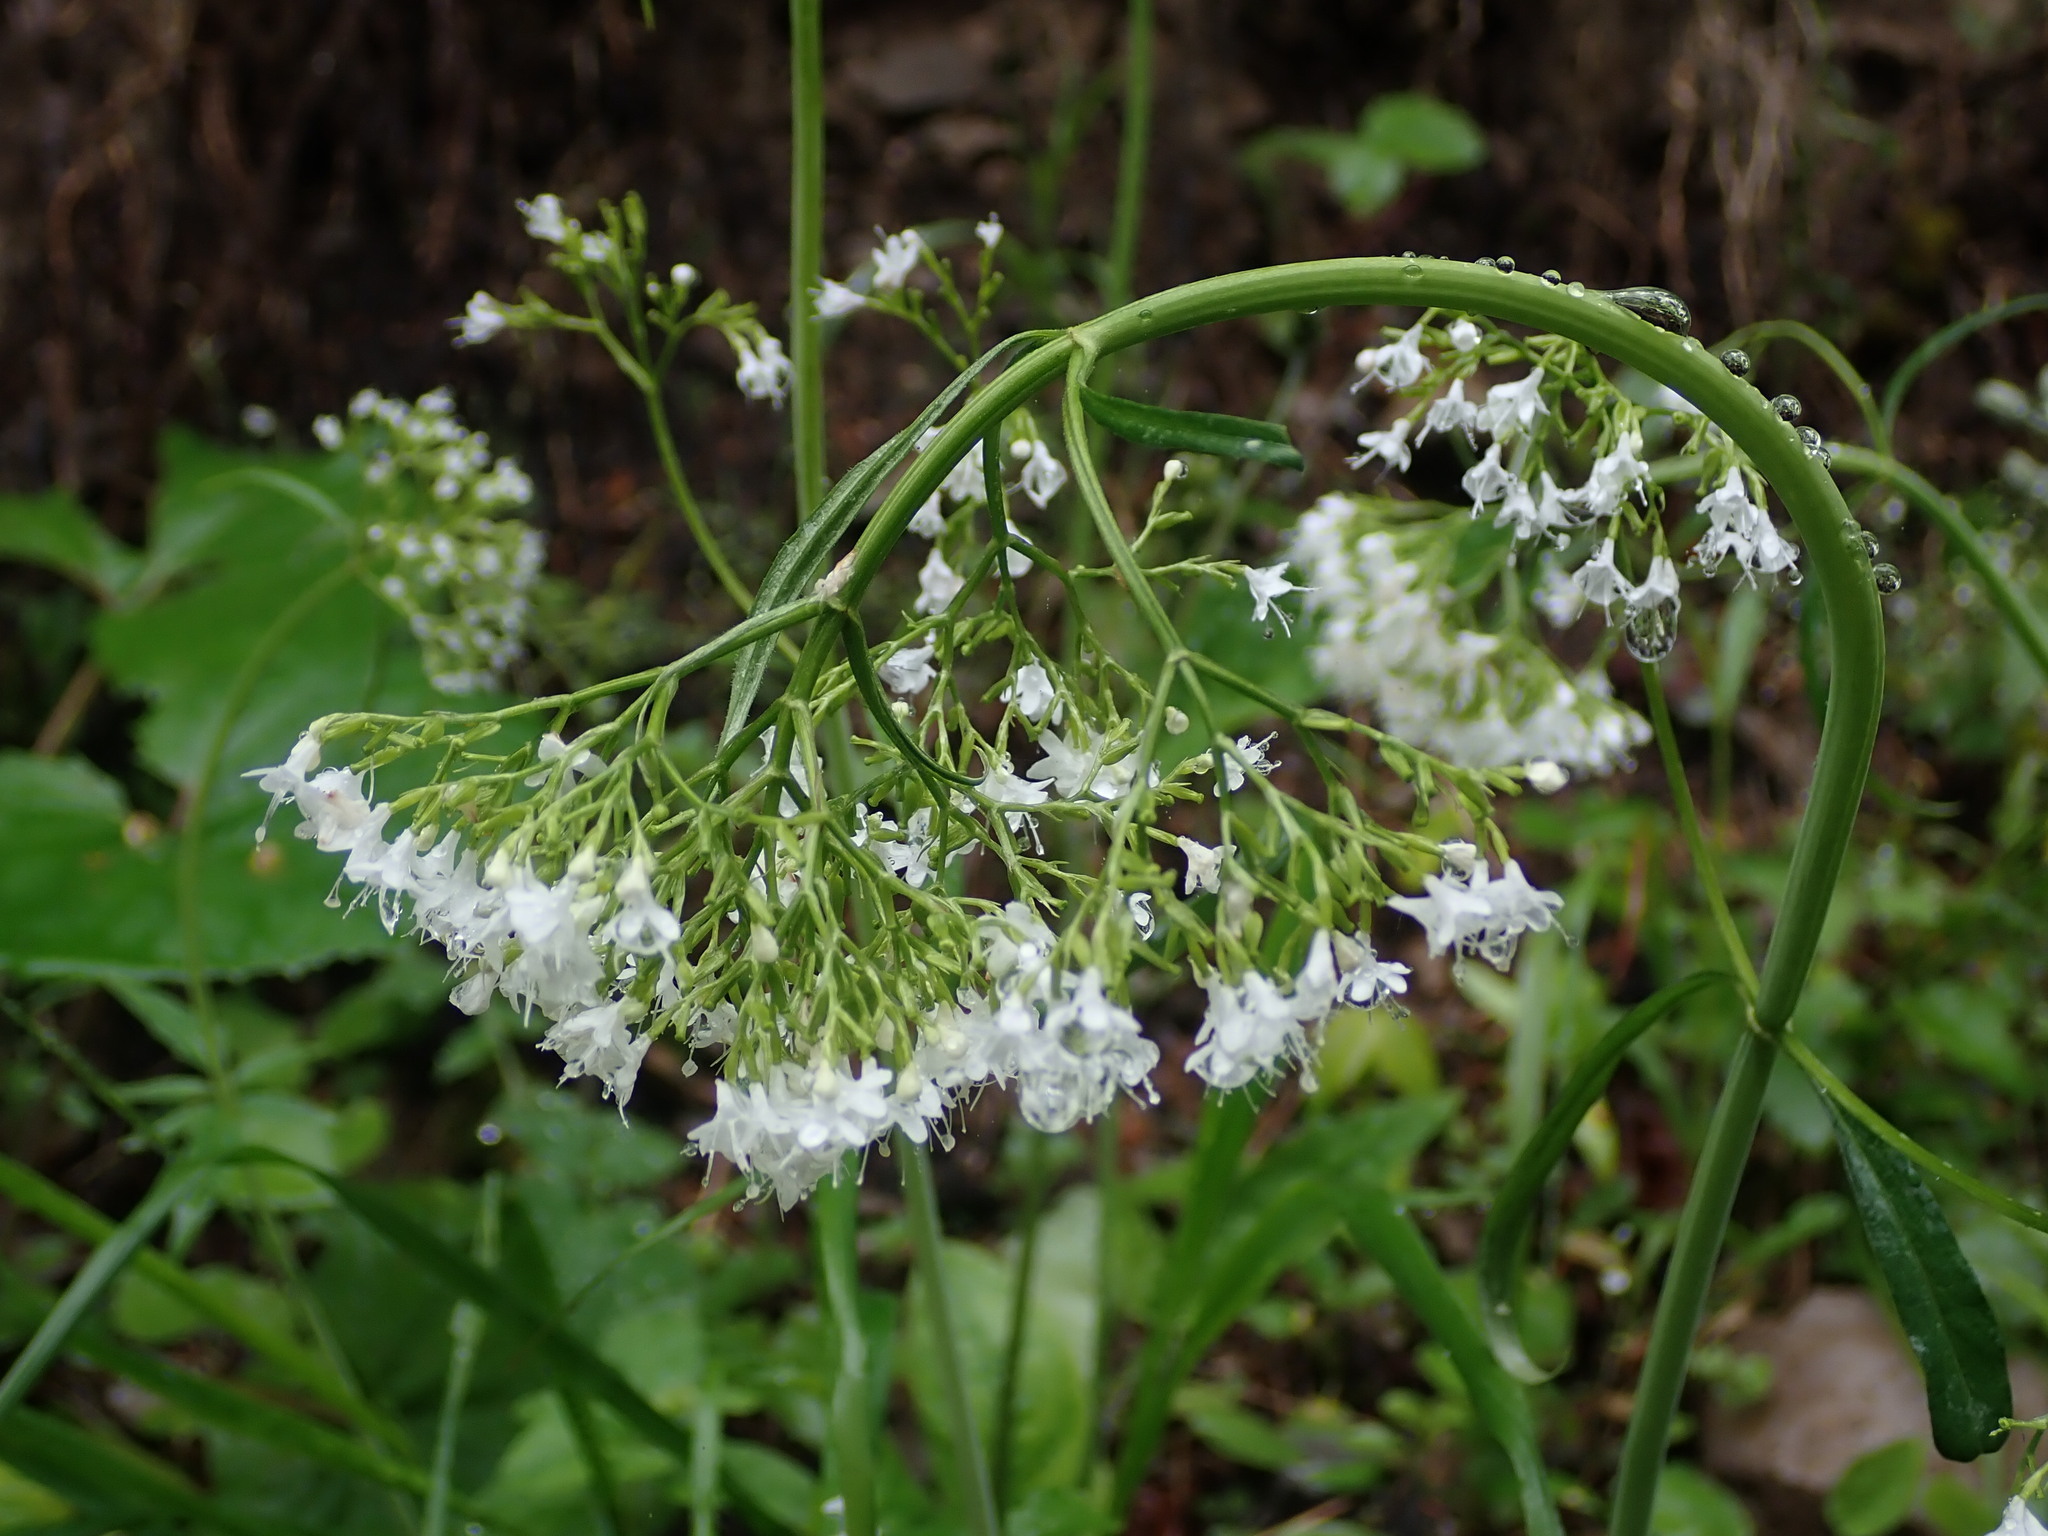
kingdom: Plantae
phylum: Tracheophyta
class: Magnoliopsida
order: Dipsacales
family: Caprifoliaceae
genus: Valeriana
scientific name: Valeriana tripteris
